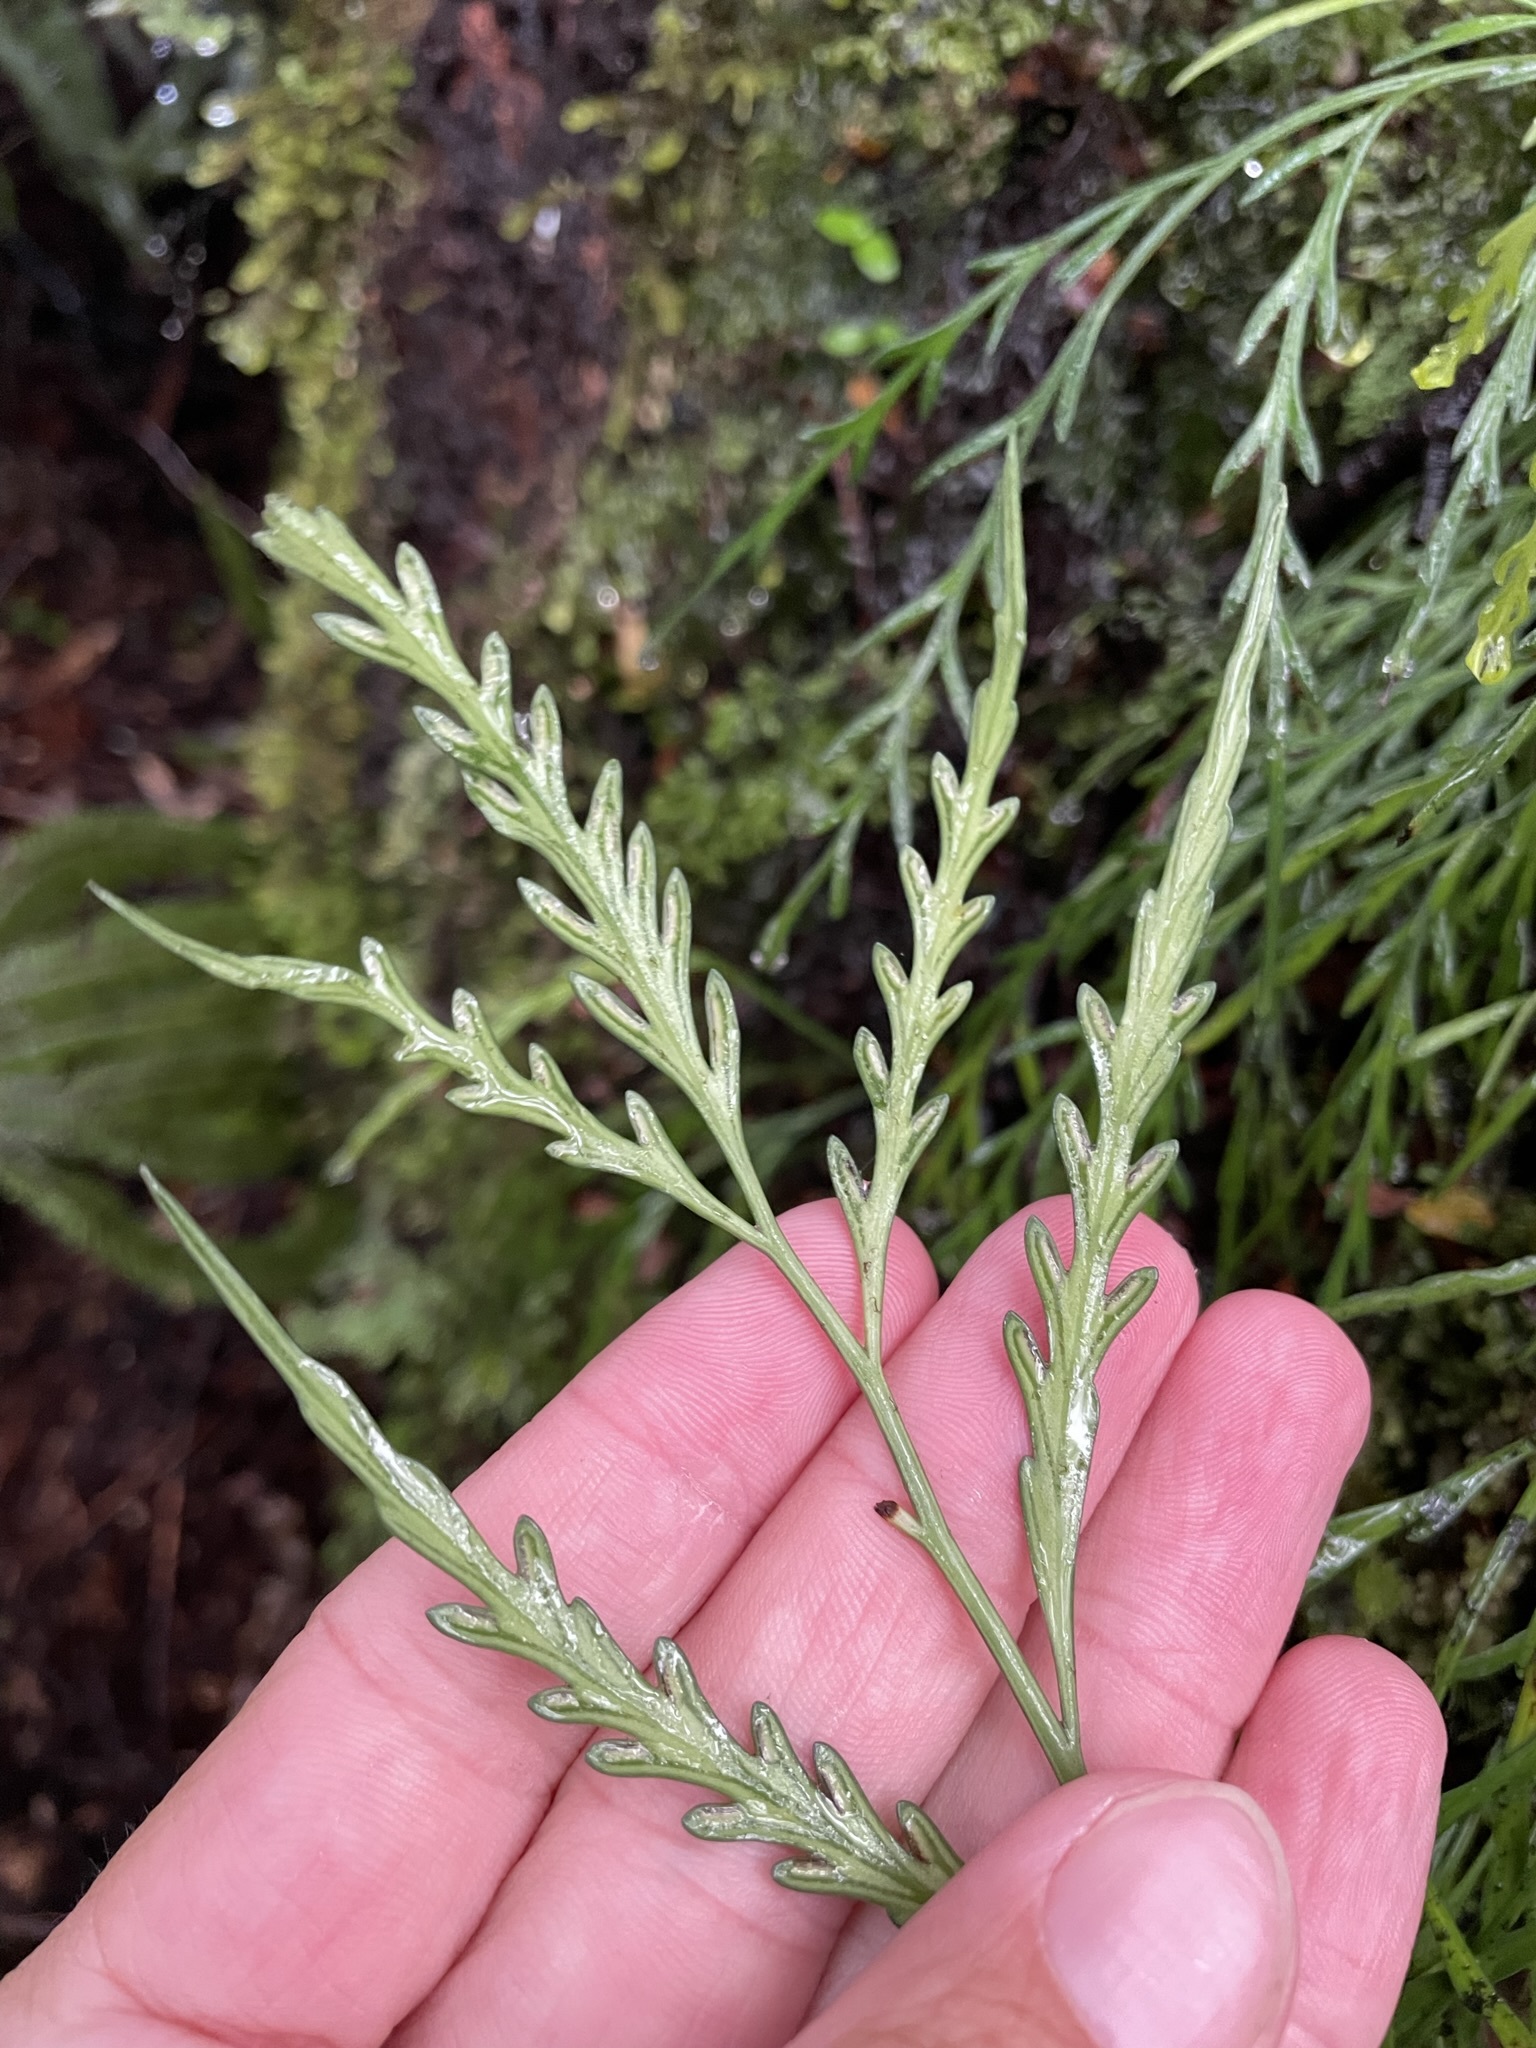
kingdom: Plantae
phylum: Tracheophyta
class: Polypodiopsida
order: Polypodiales
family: Aspleniaceae
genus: Asplenium
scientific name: Asplenium flaccidum
